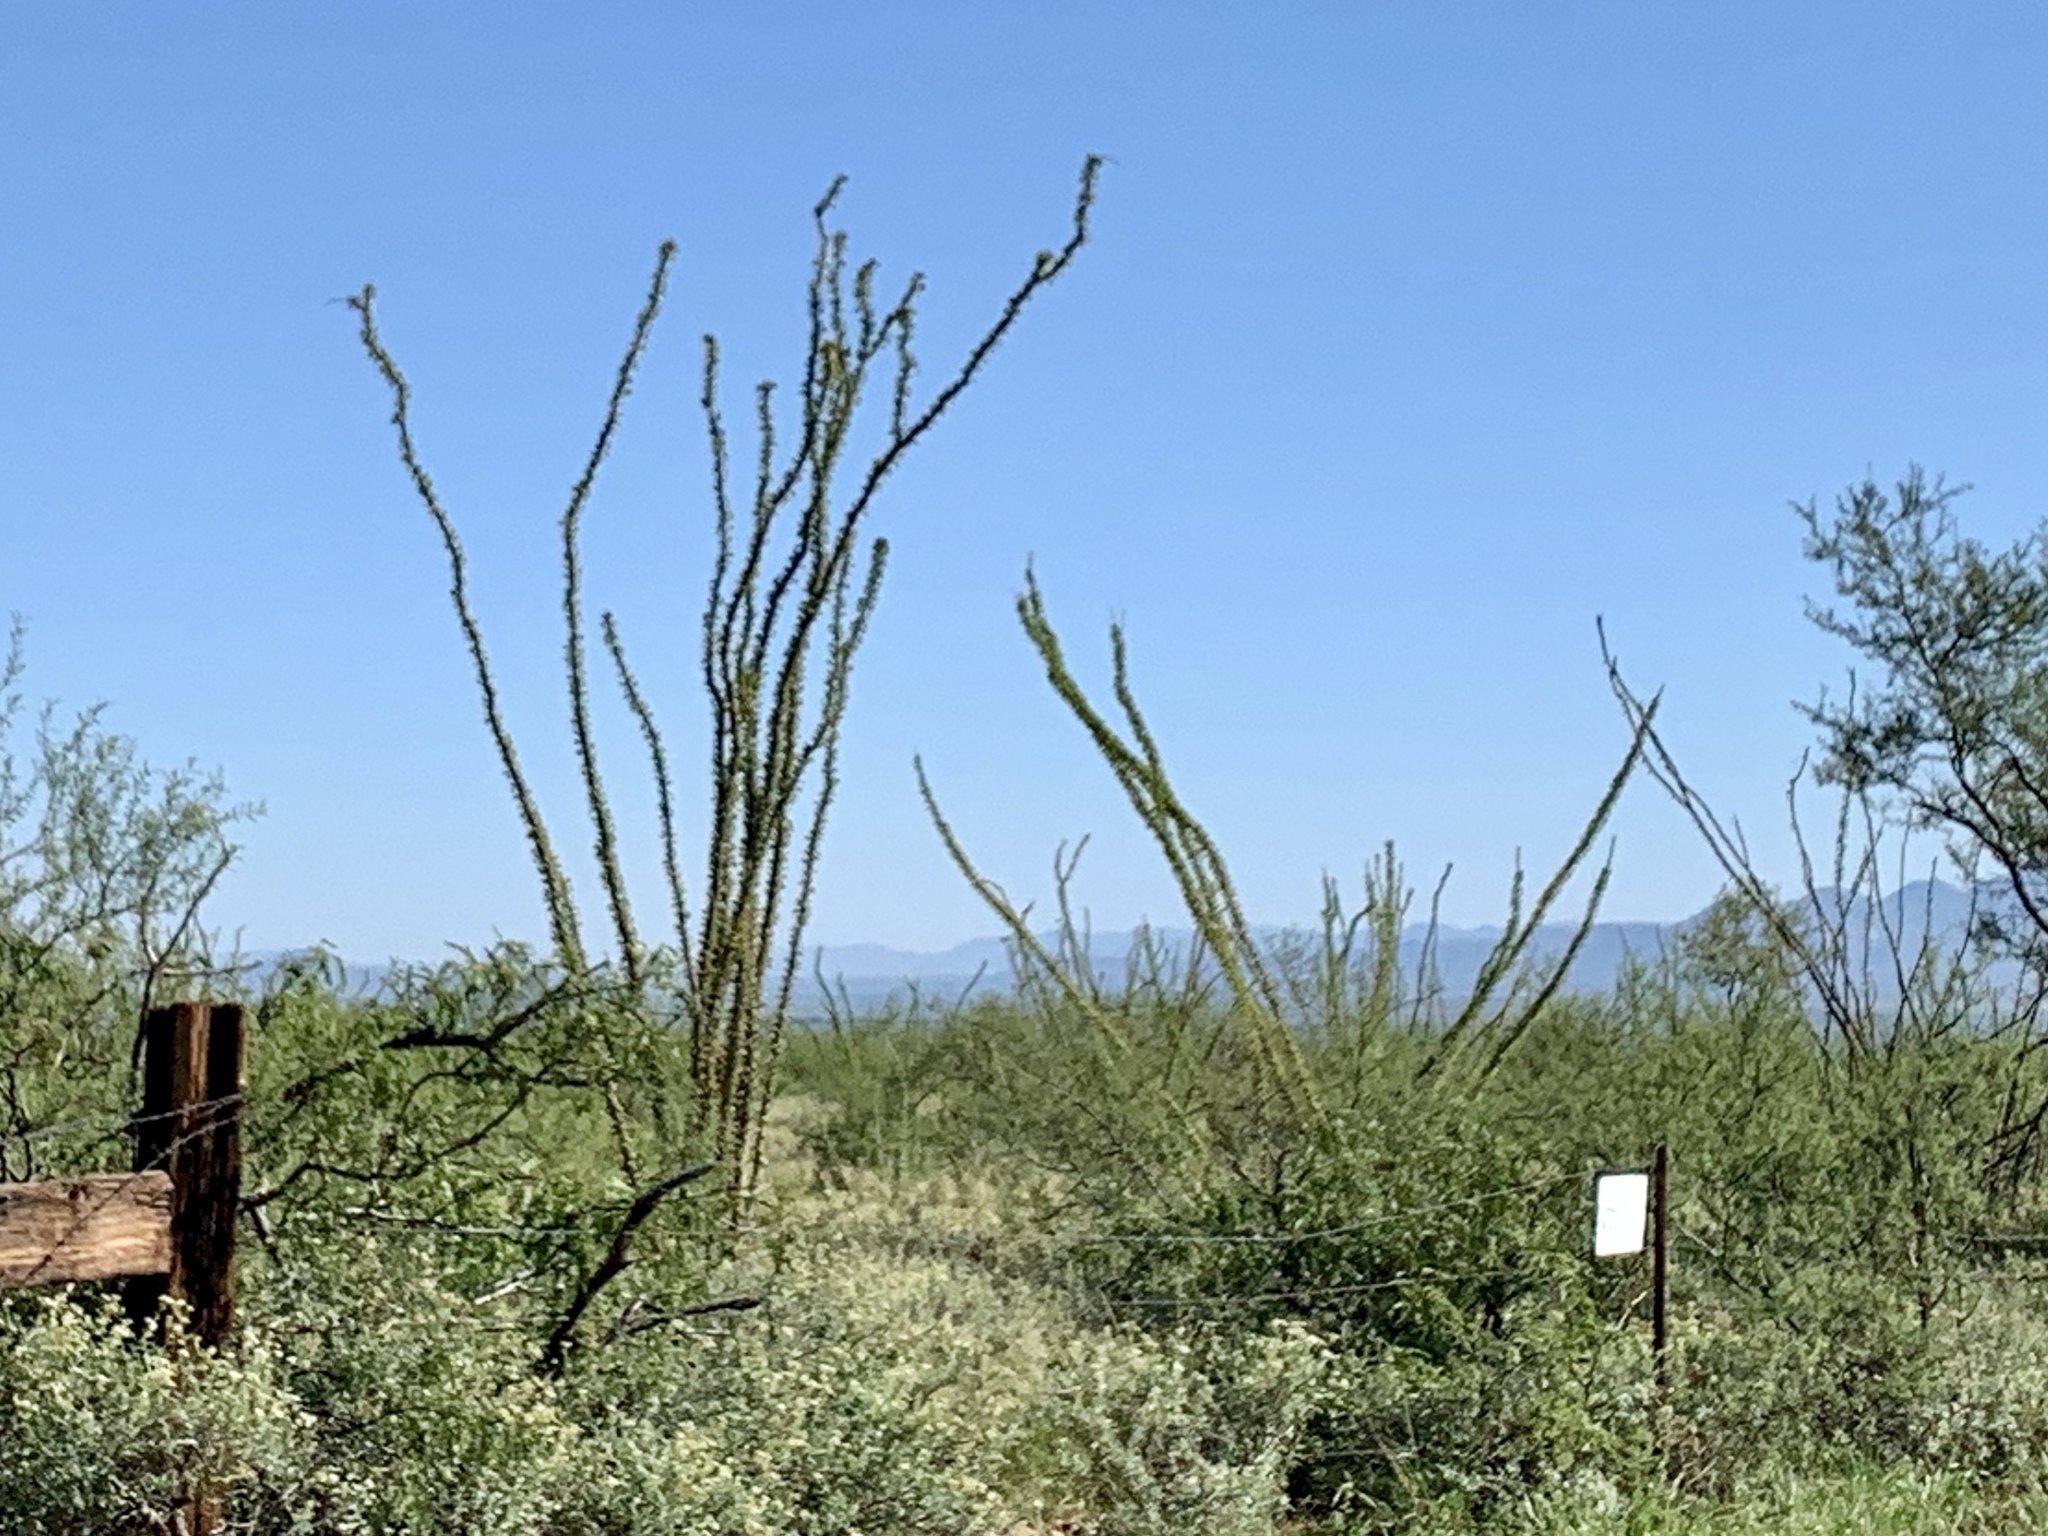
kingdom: Plantae
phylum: Tracheophyta
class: Magnoliopsida
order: Ericales
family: Fouquieriaceae
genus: Fouquieria
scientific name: Fouquieria splendens
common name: Vine-cactus
